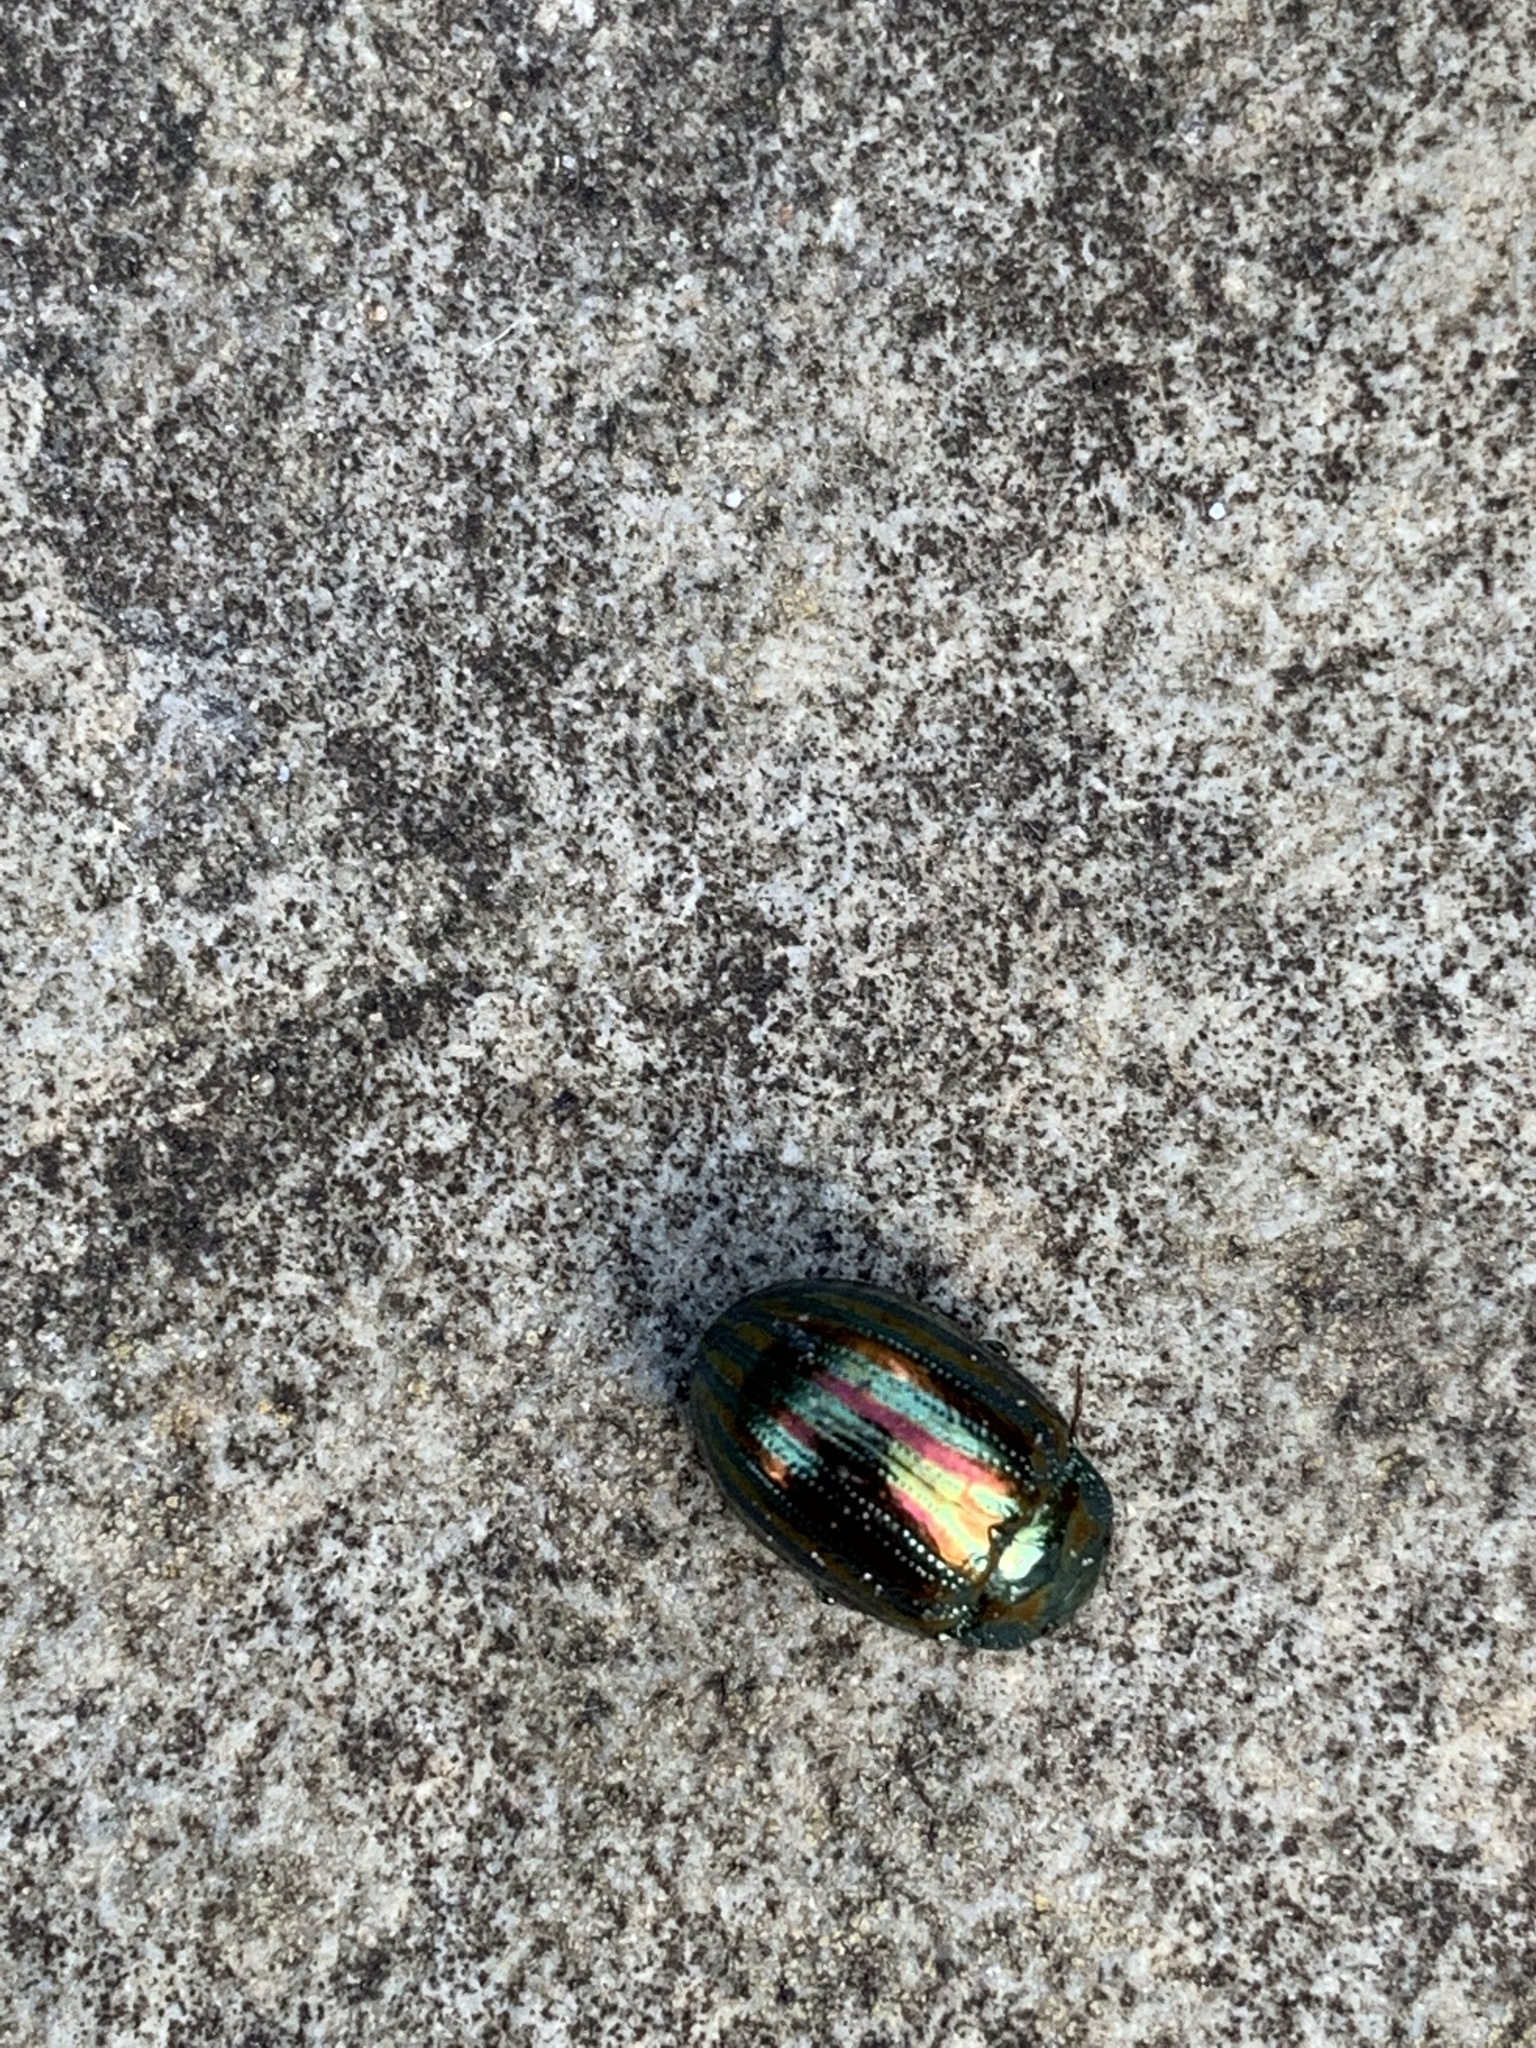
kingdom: Animalia
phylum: Arthropoda
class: Insecta
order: Coleoptera
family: Chrysomelidae
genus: Chrysolina
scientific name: Chrysolina americana
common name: Rosemary beetle
